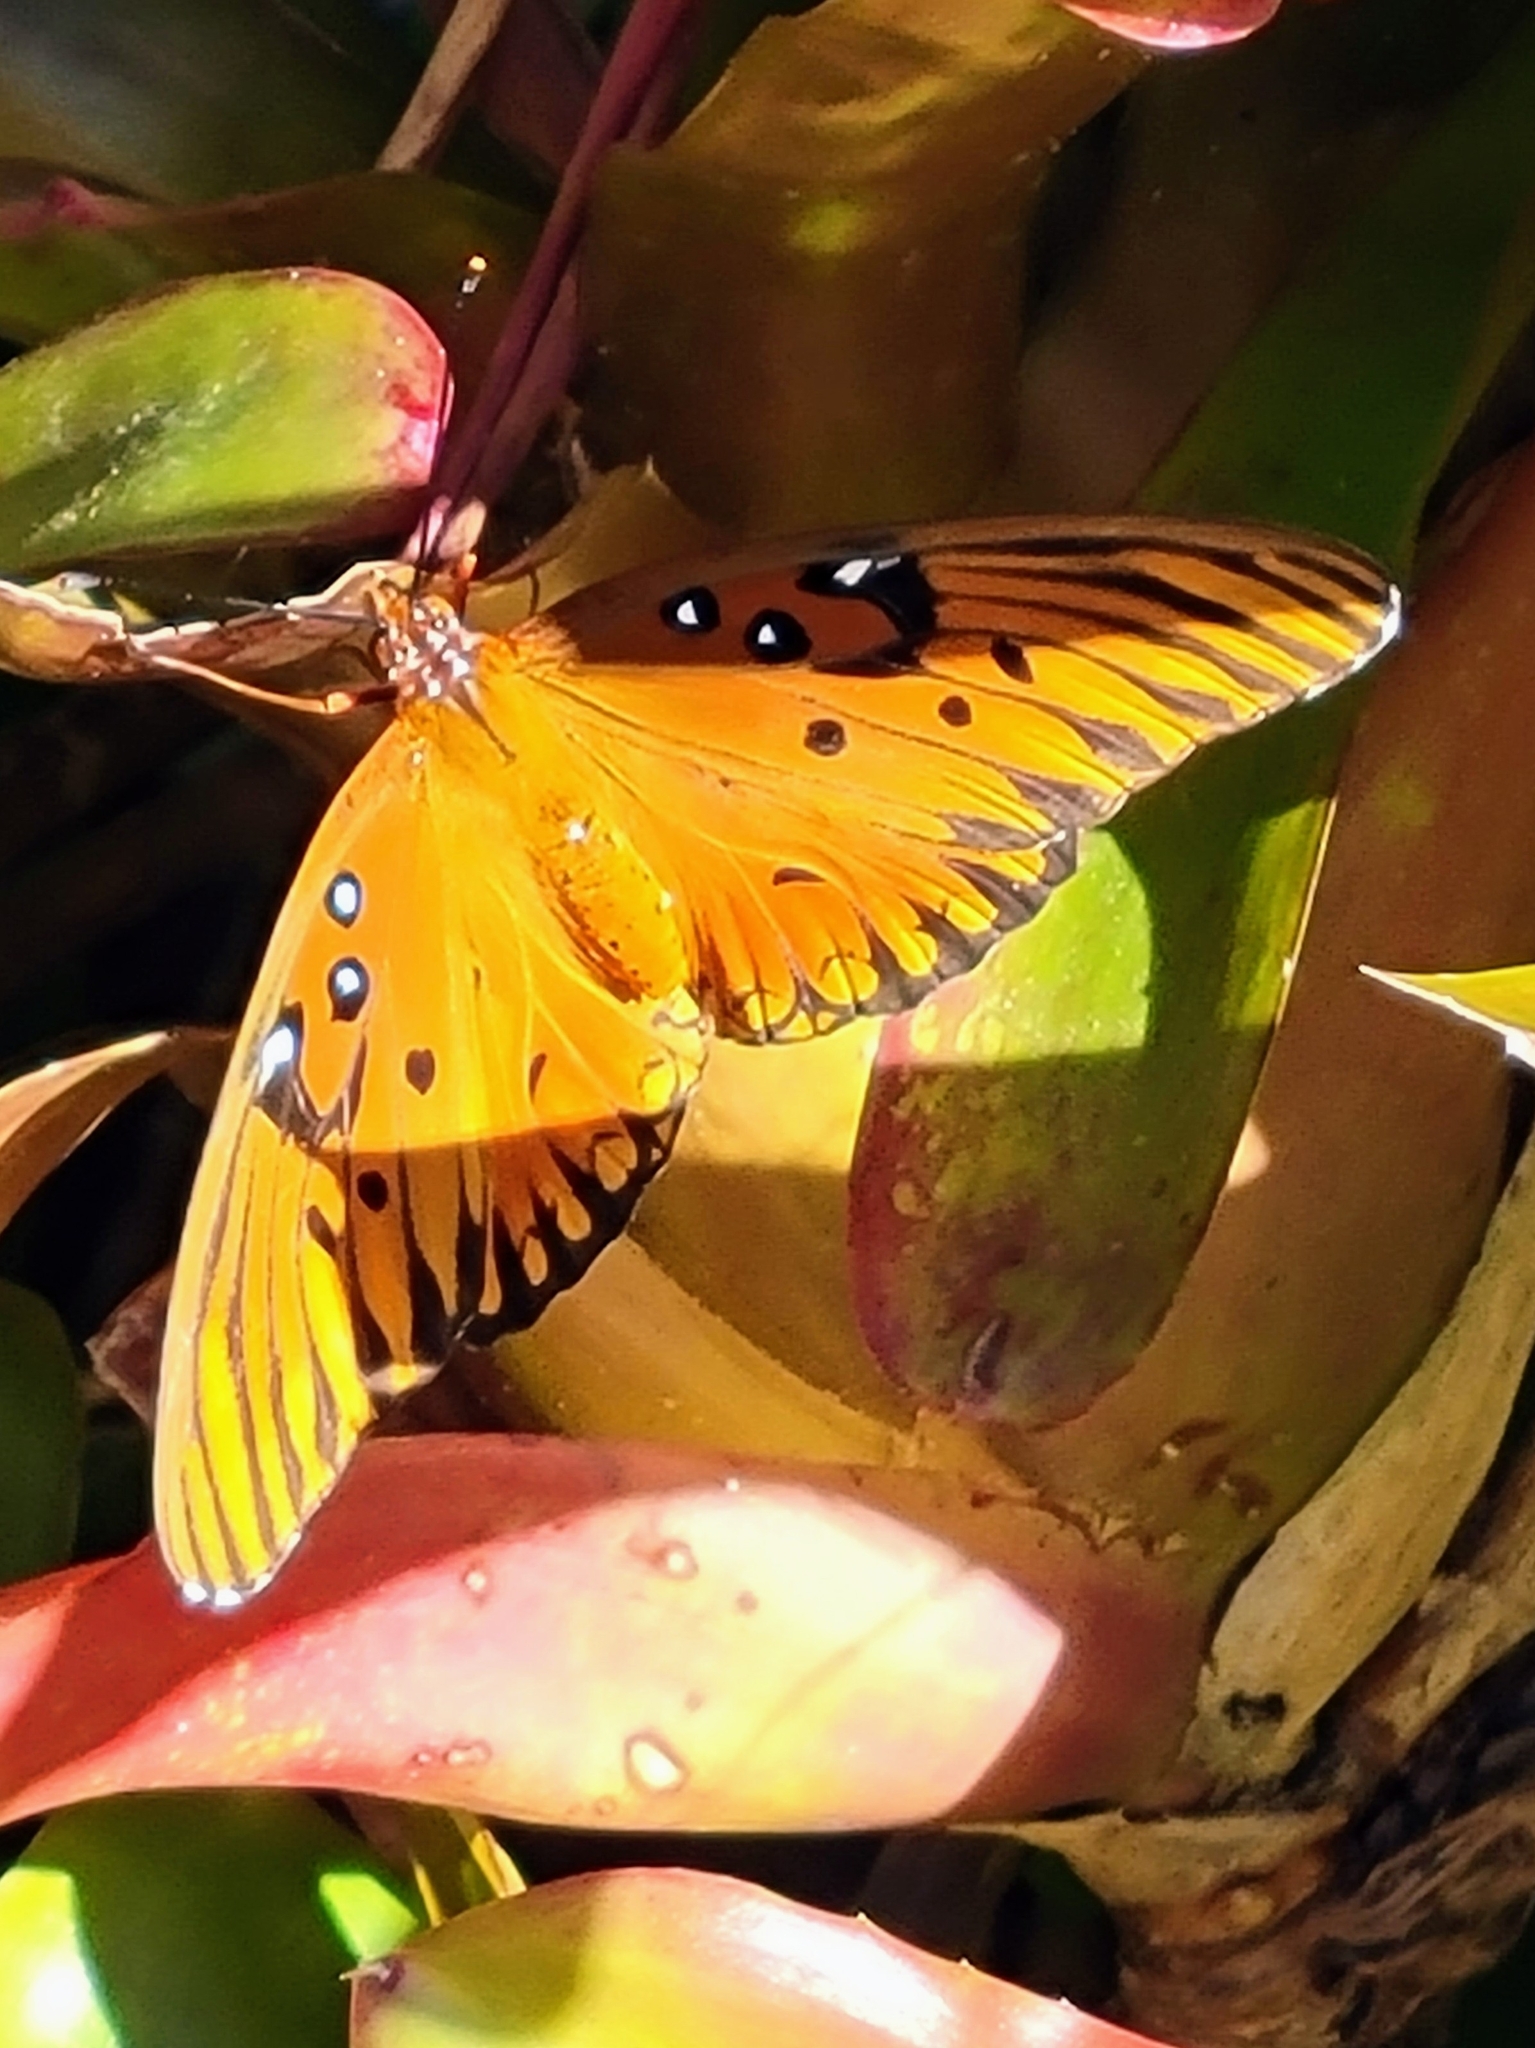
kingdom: Animalia
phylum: Arthropoda
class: Insecta
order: Lepidoptera
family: Nymphalidae
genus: Dione
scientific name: Dione vanillae
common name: Gulf fritillary
